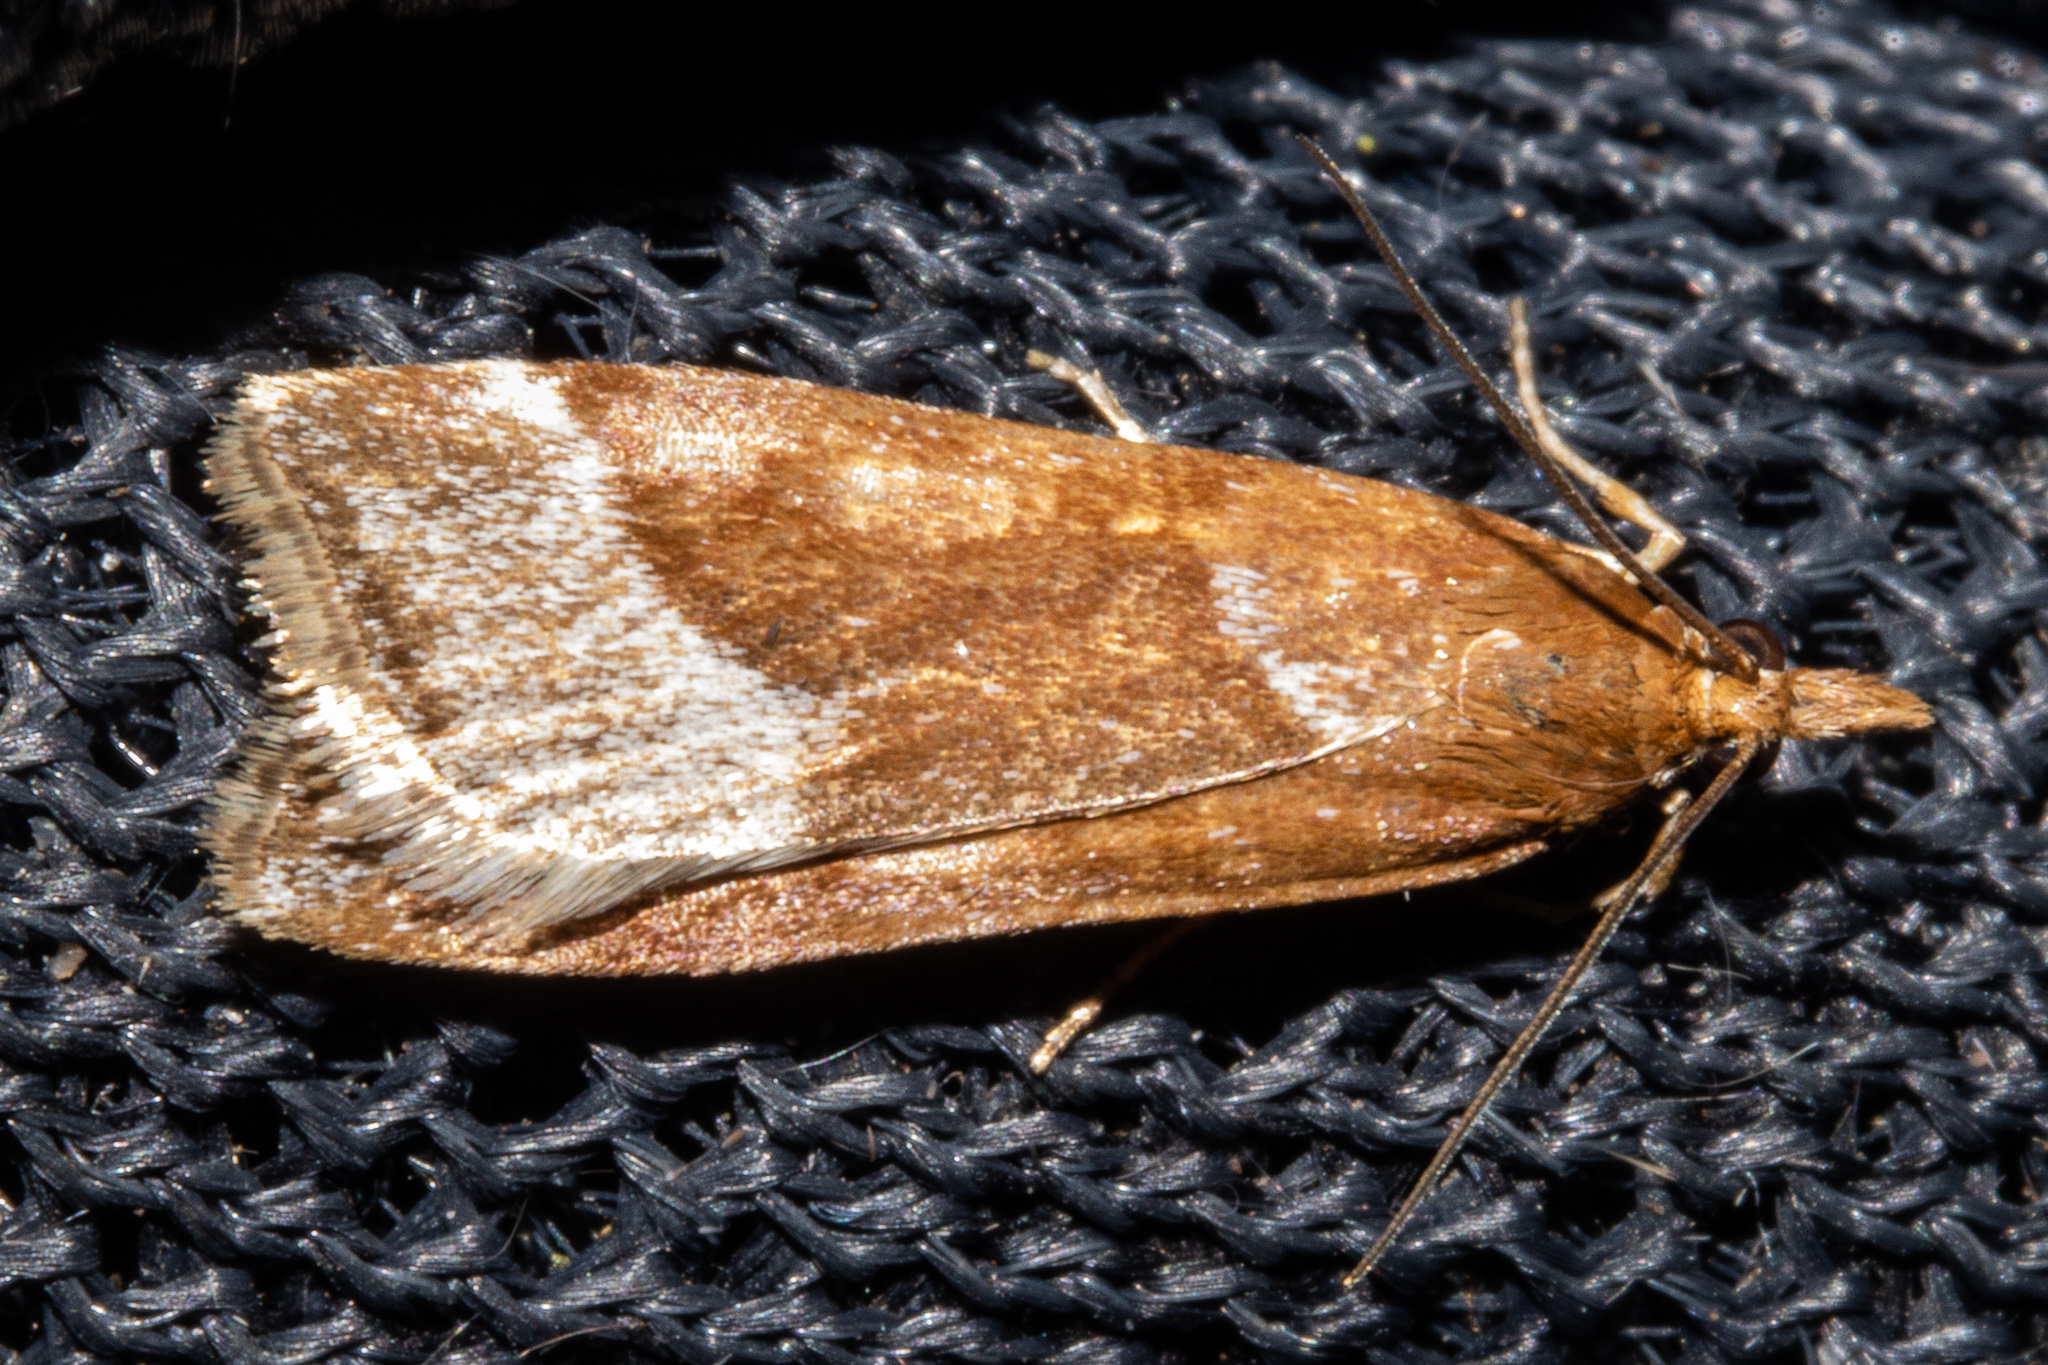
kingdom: Animalia
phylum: Arthropoda
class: Insecta
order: Lepidoptera
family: Crambidae
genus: Eudonia
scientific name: Eudonia feredayi
